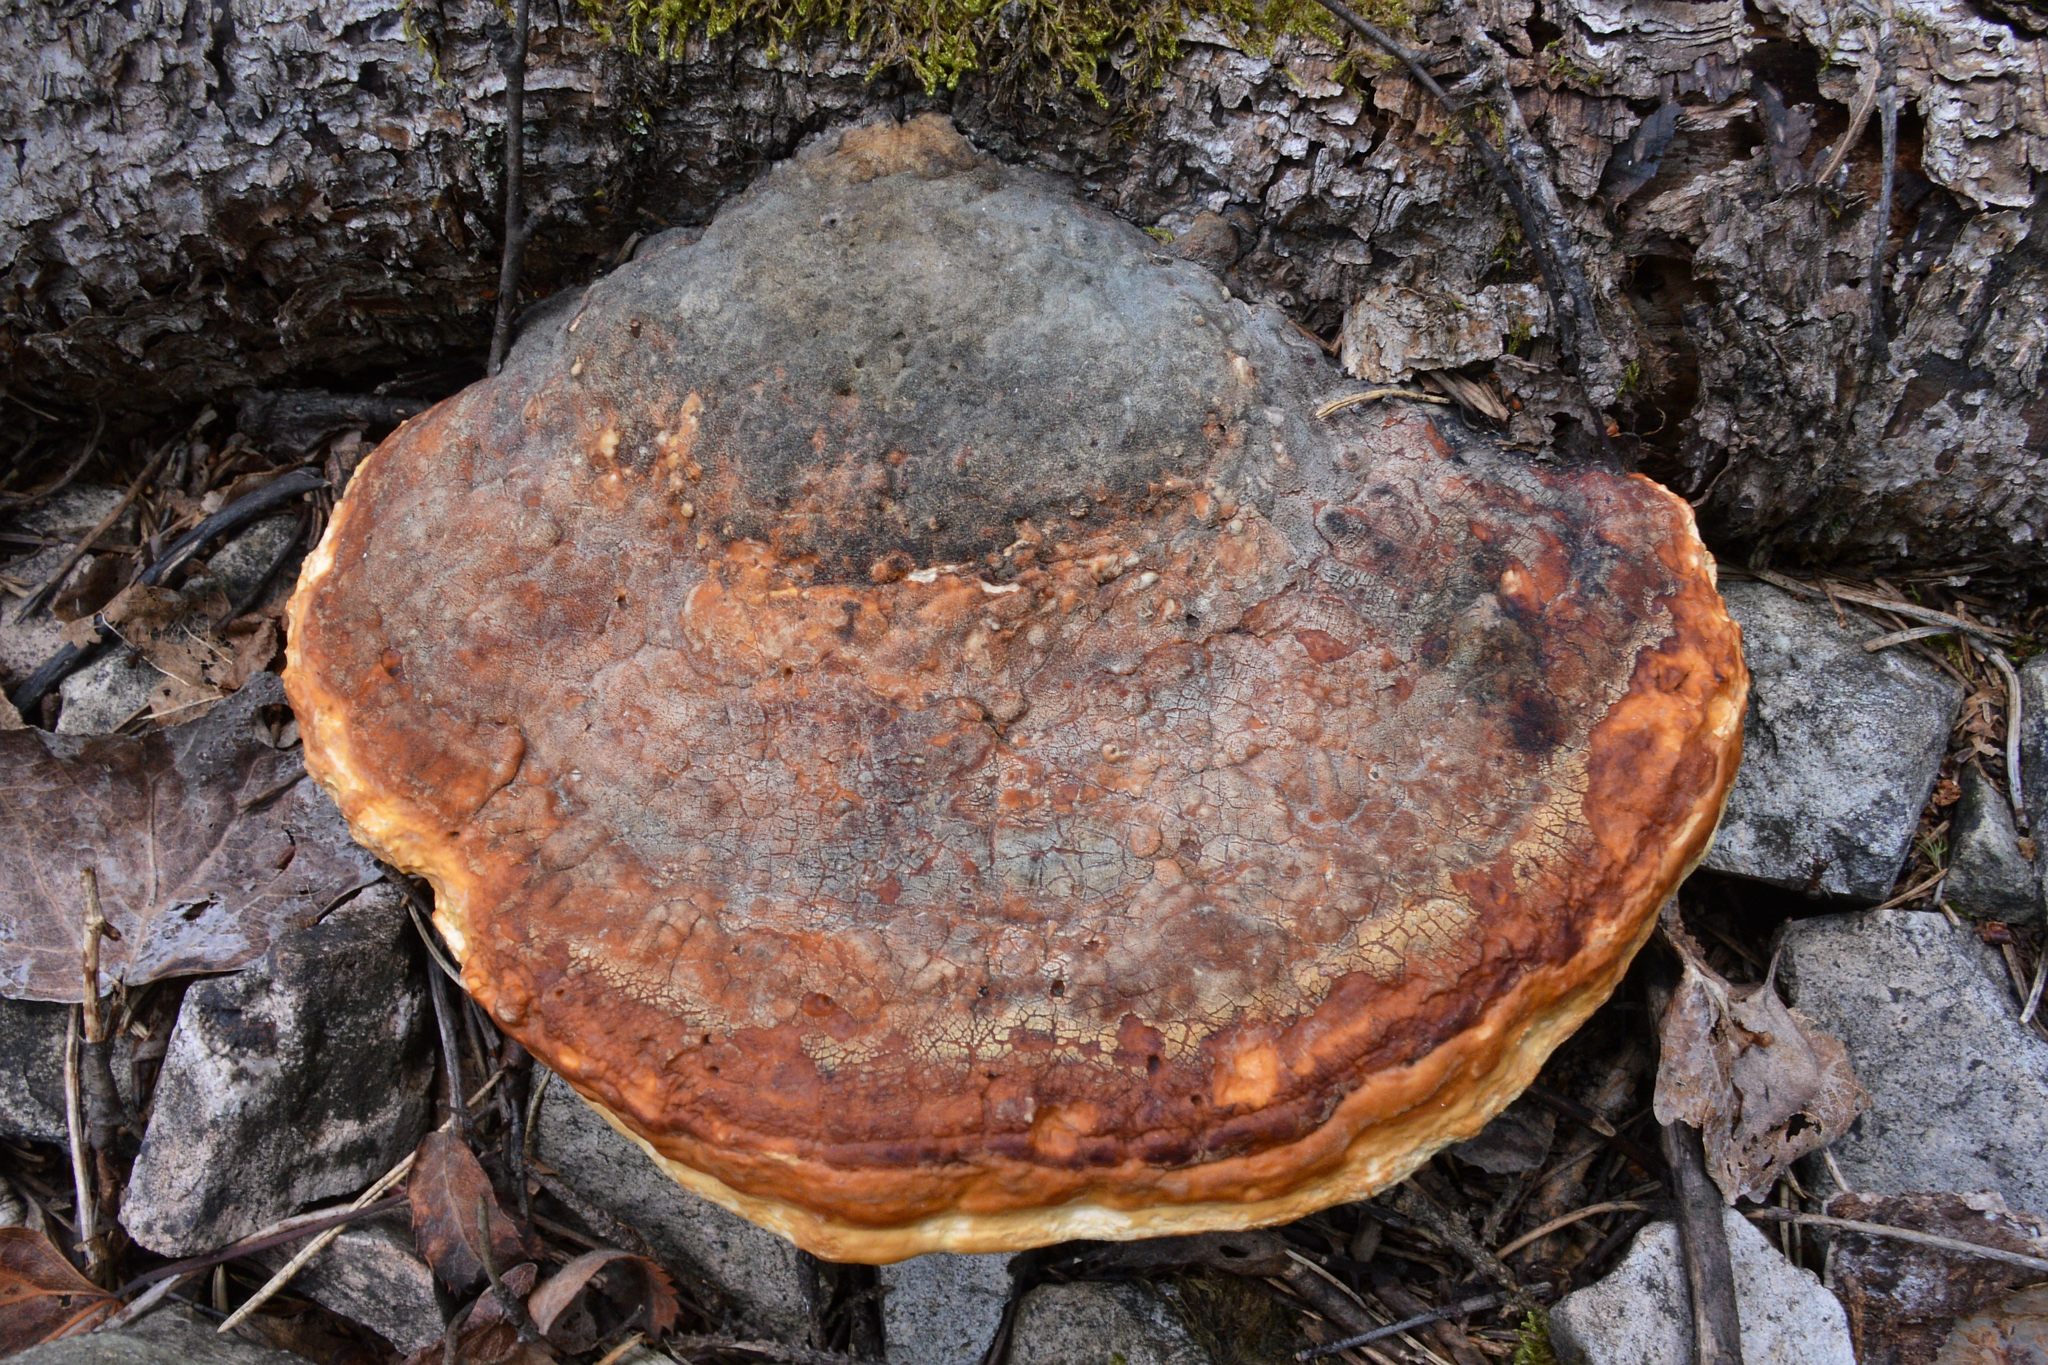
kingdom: Fungi
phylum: Basidiomycota
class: Agaricomycetes
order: Polyporales
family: Fomitopsidaceae
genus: Fomitopsis
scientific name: Fomitopsis pinicola
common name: Red-belted bracket
